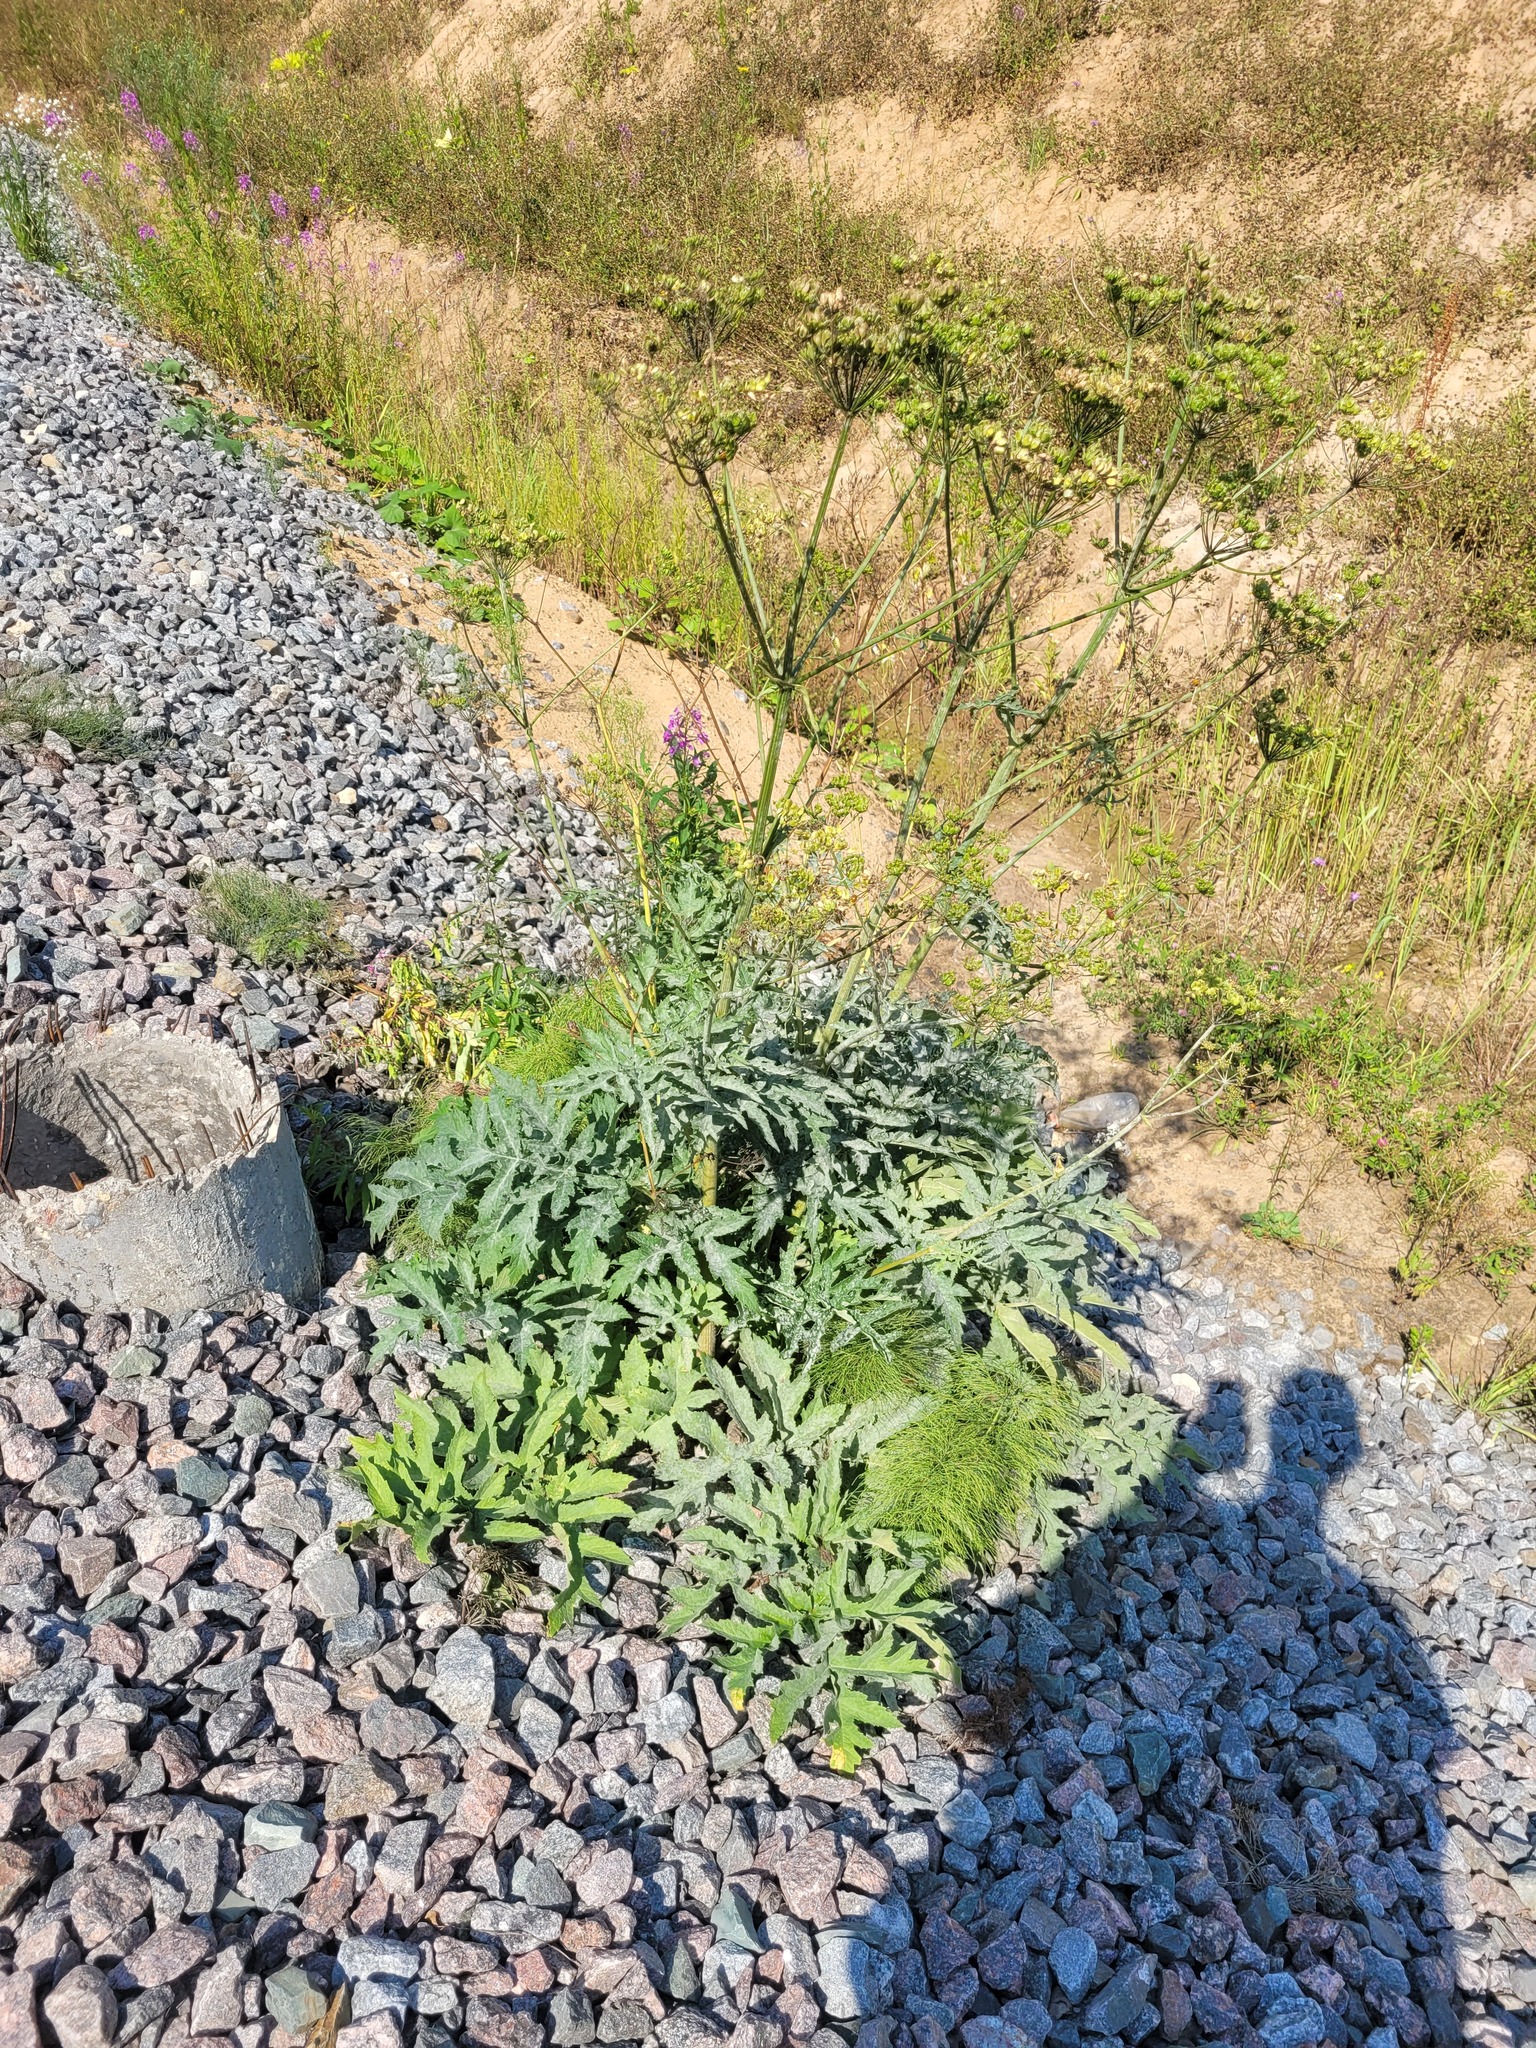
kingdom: Plantae
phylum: Tracheophyta
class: Magnoliopsida
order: Apiales
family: Apiaceae
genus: Heracleum
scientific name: Heracleum sphondylium
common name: Hogweed
